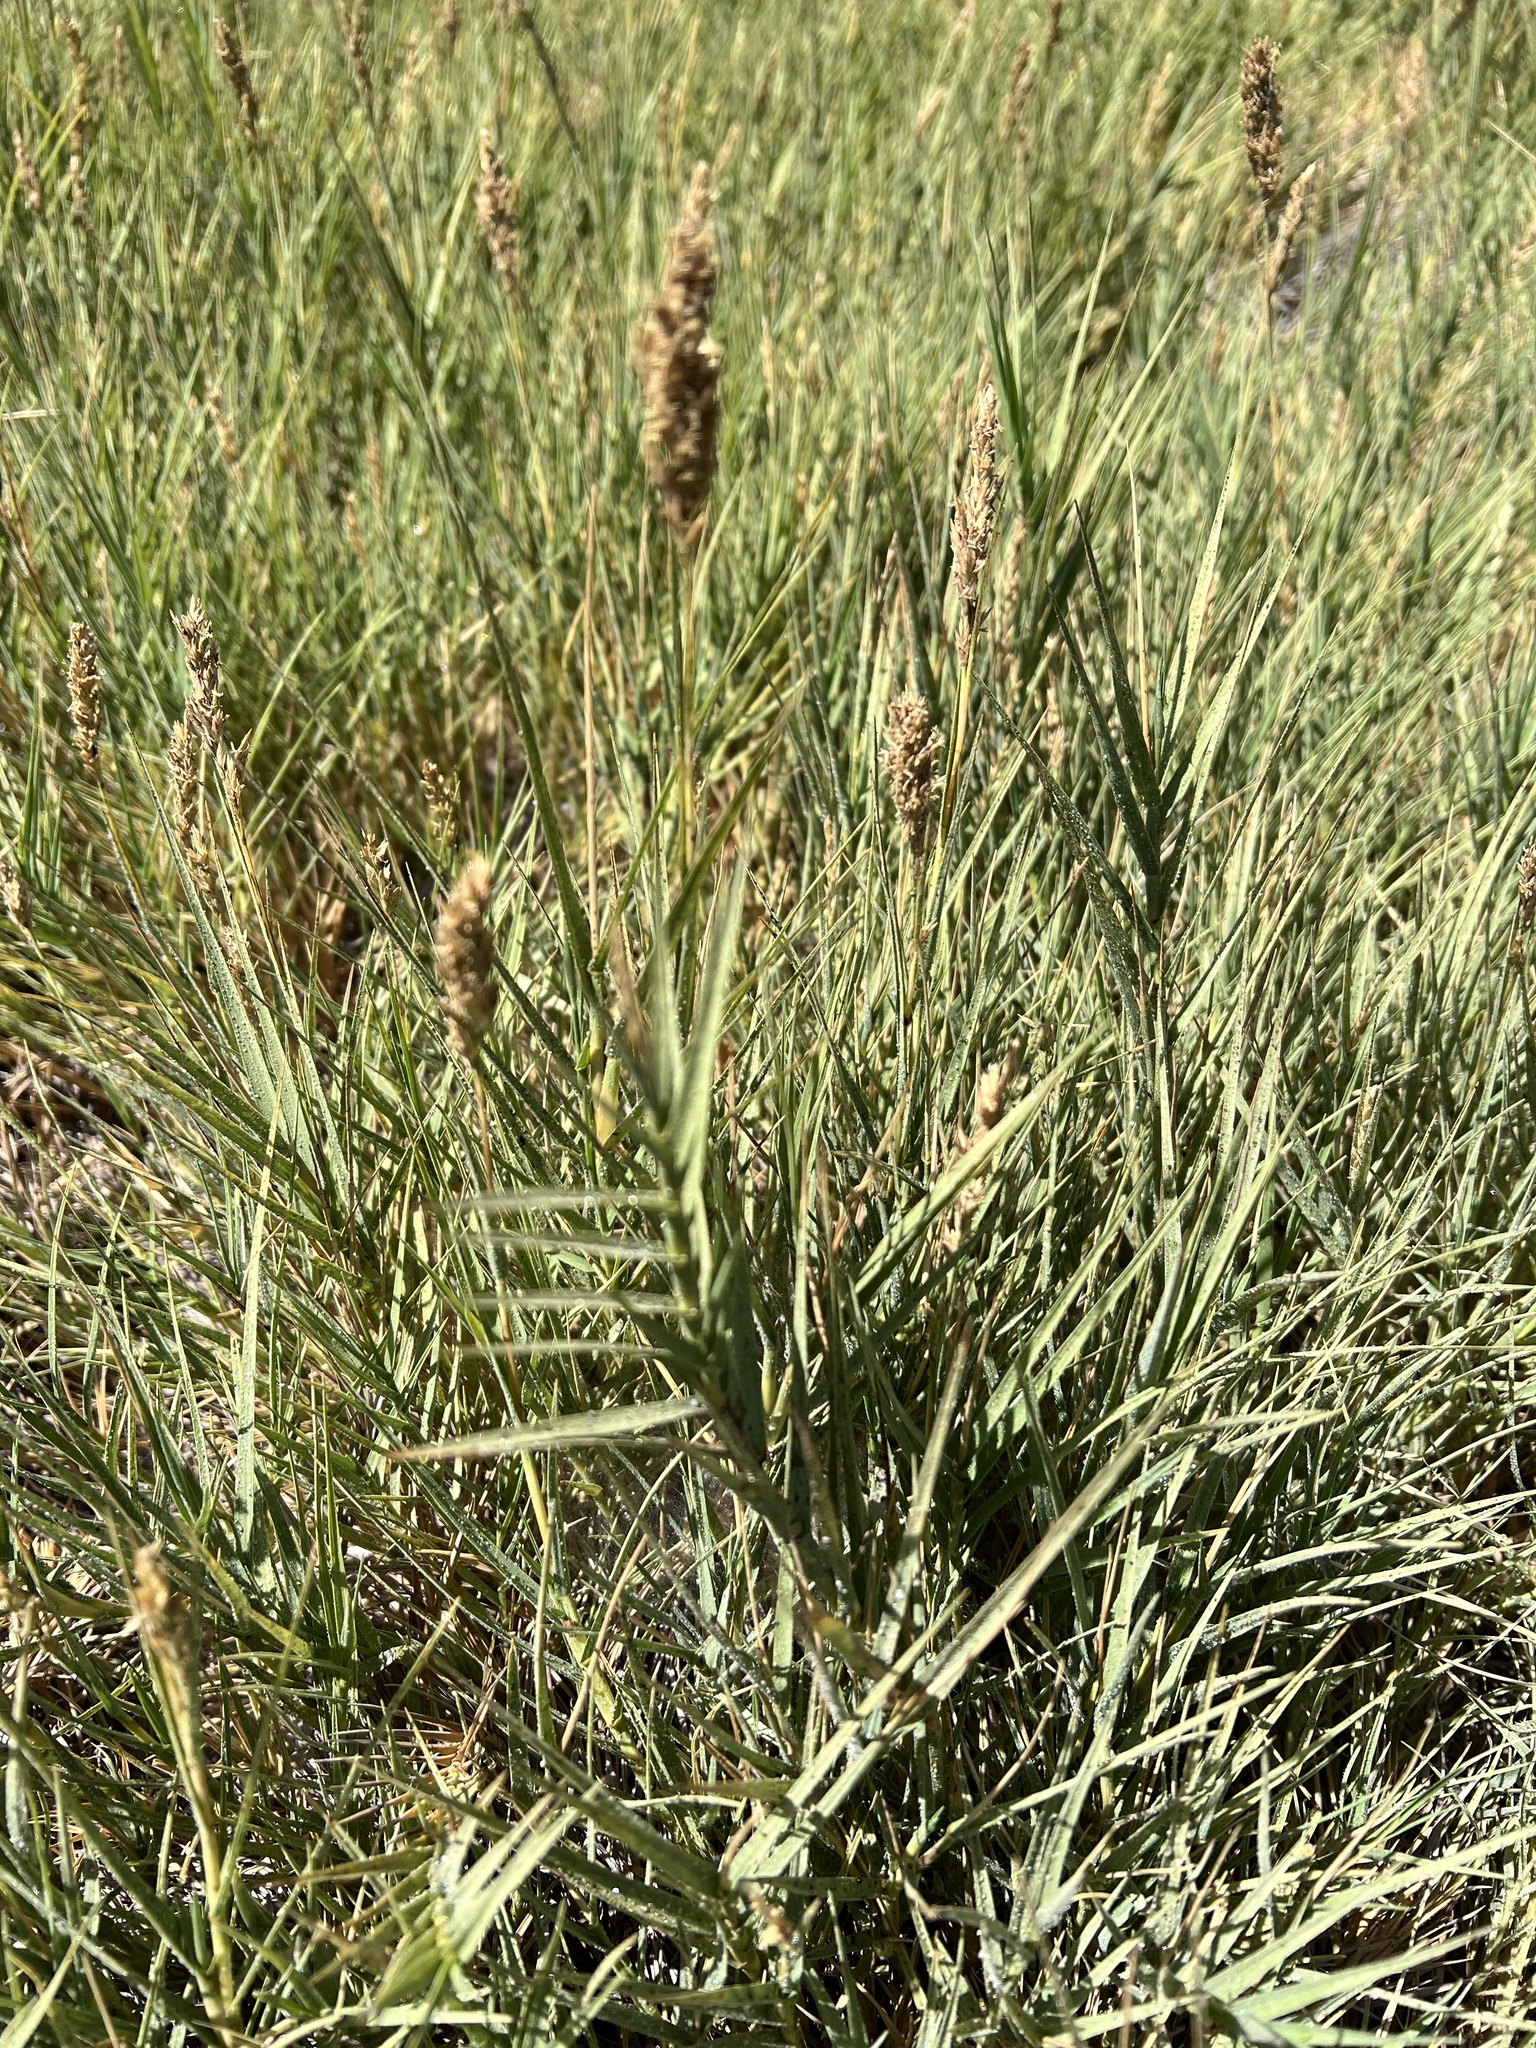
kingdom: Plantae
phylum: Tracheophyta
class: Liliopsida
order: Poales
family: Poaceae
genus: Distichlis
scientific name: Distichlis spicata
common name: Saltgrass
